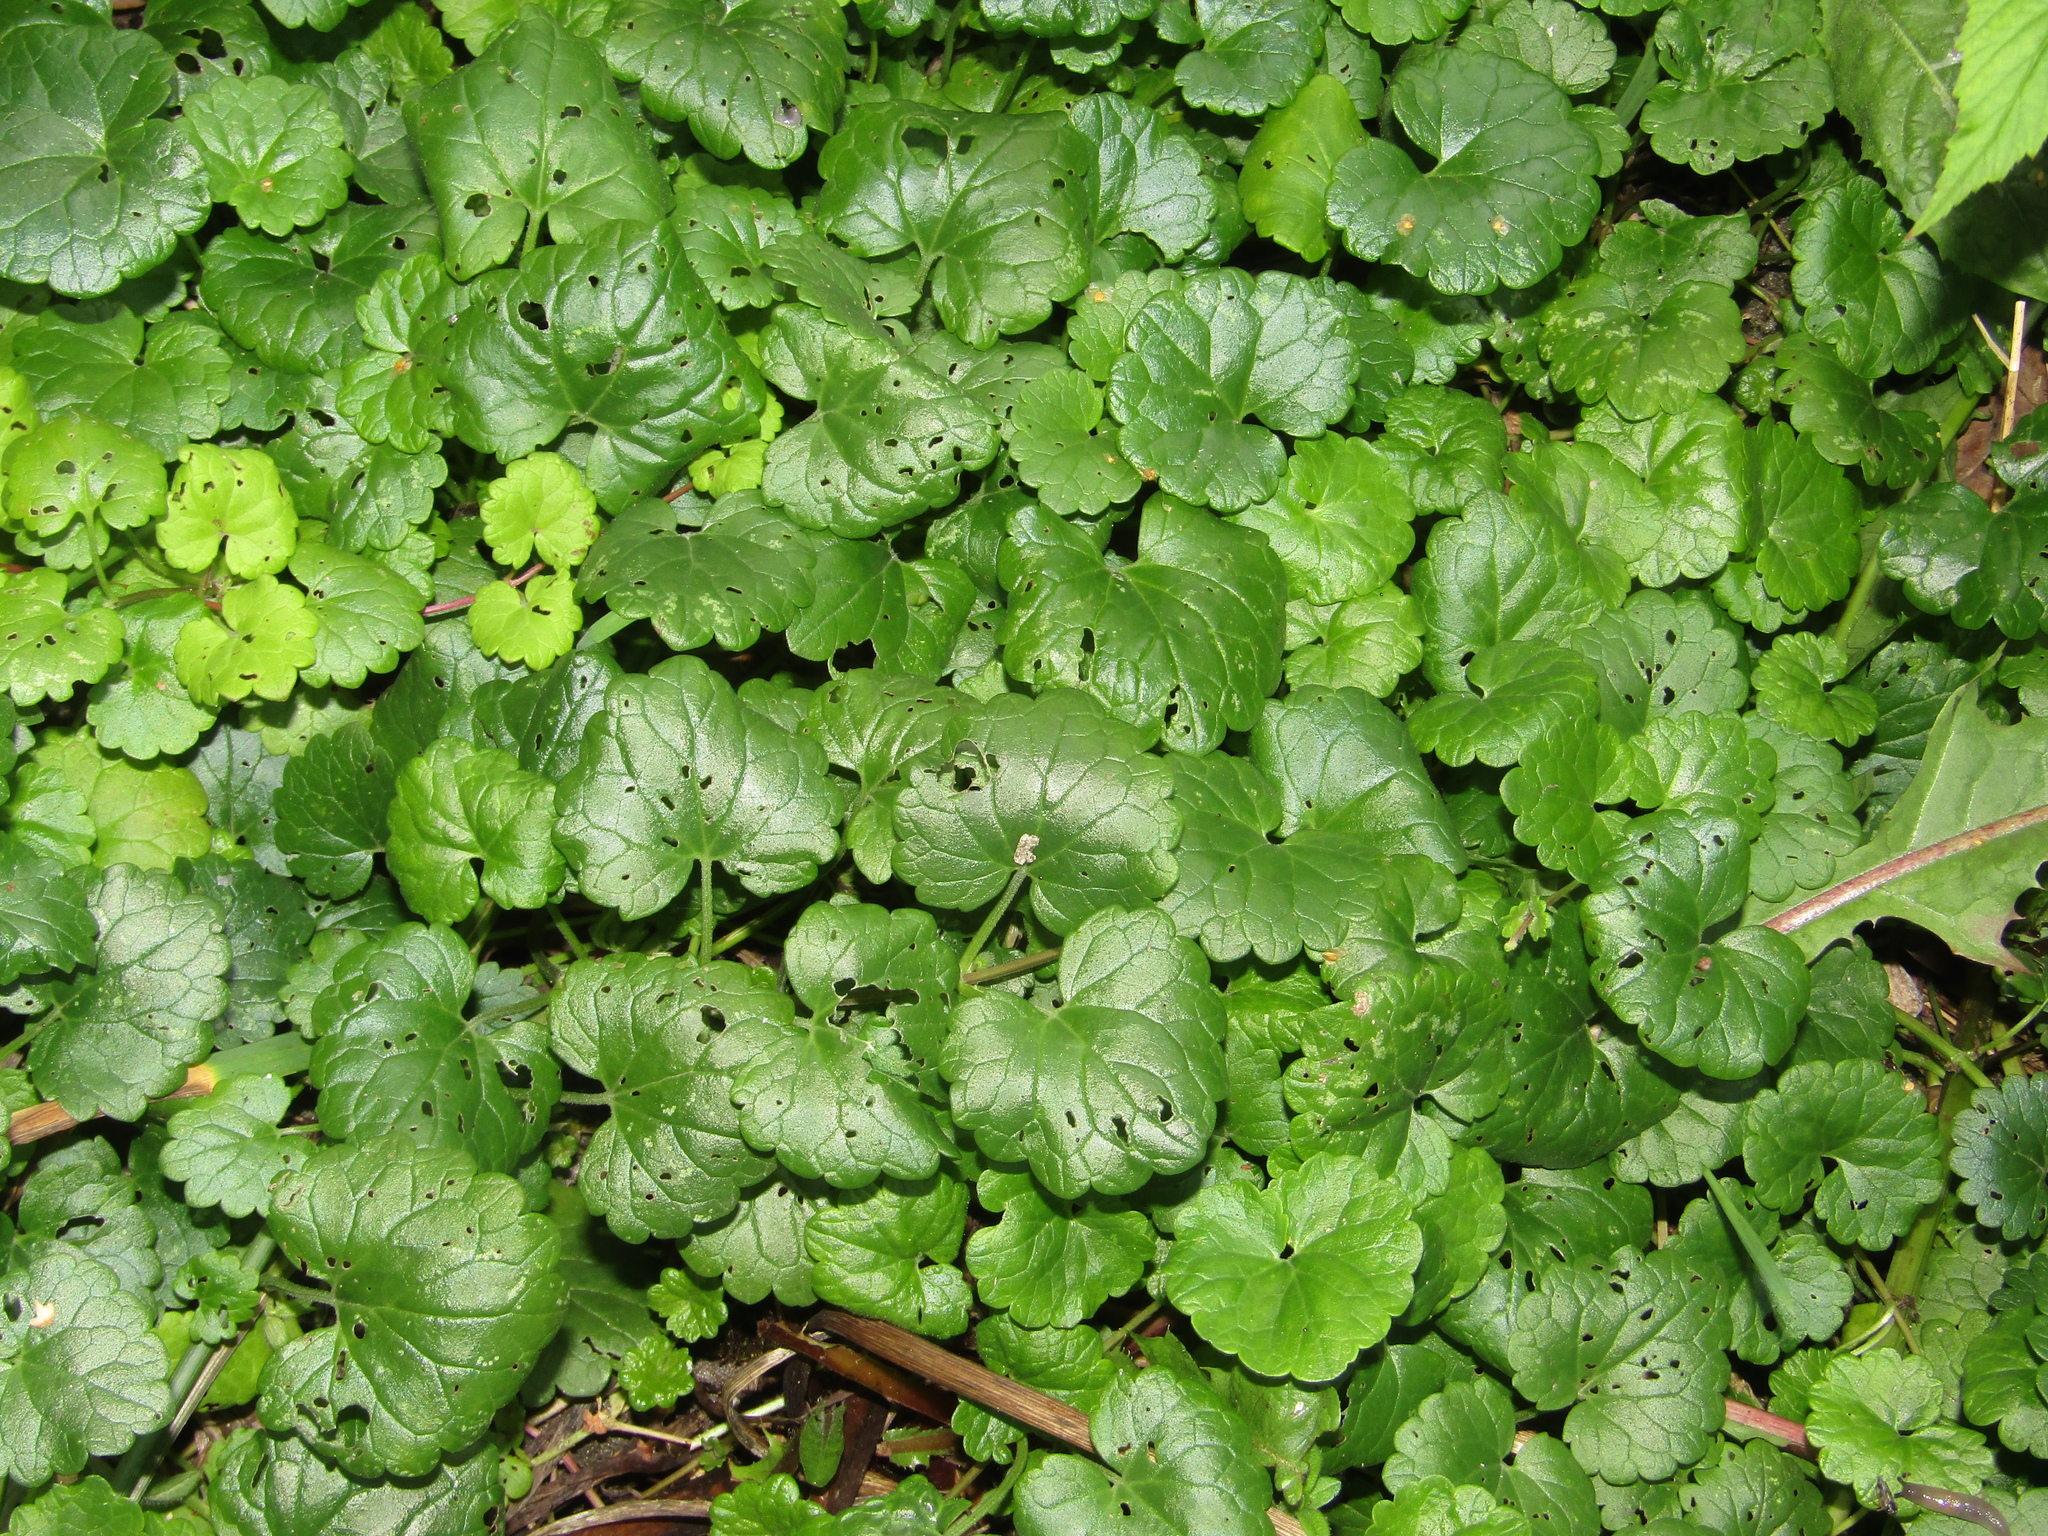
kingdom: Plantae
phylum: Tracheophyta
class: Magnoliopsida
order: Lamiales
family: Lamiaceae
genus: Glechoma
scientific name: Glechoma hederacea
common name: Ground ivy
